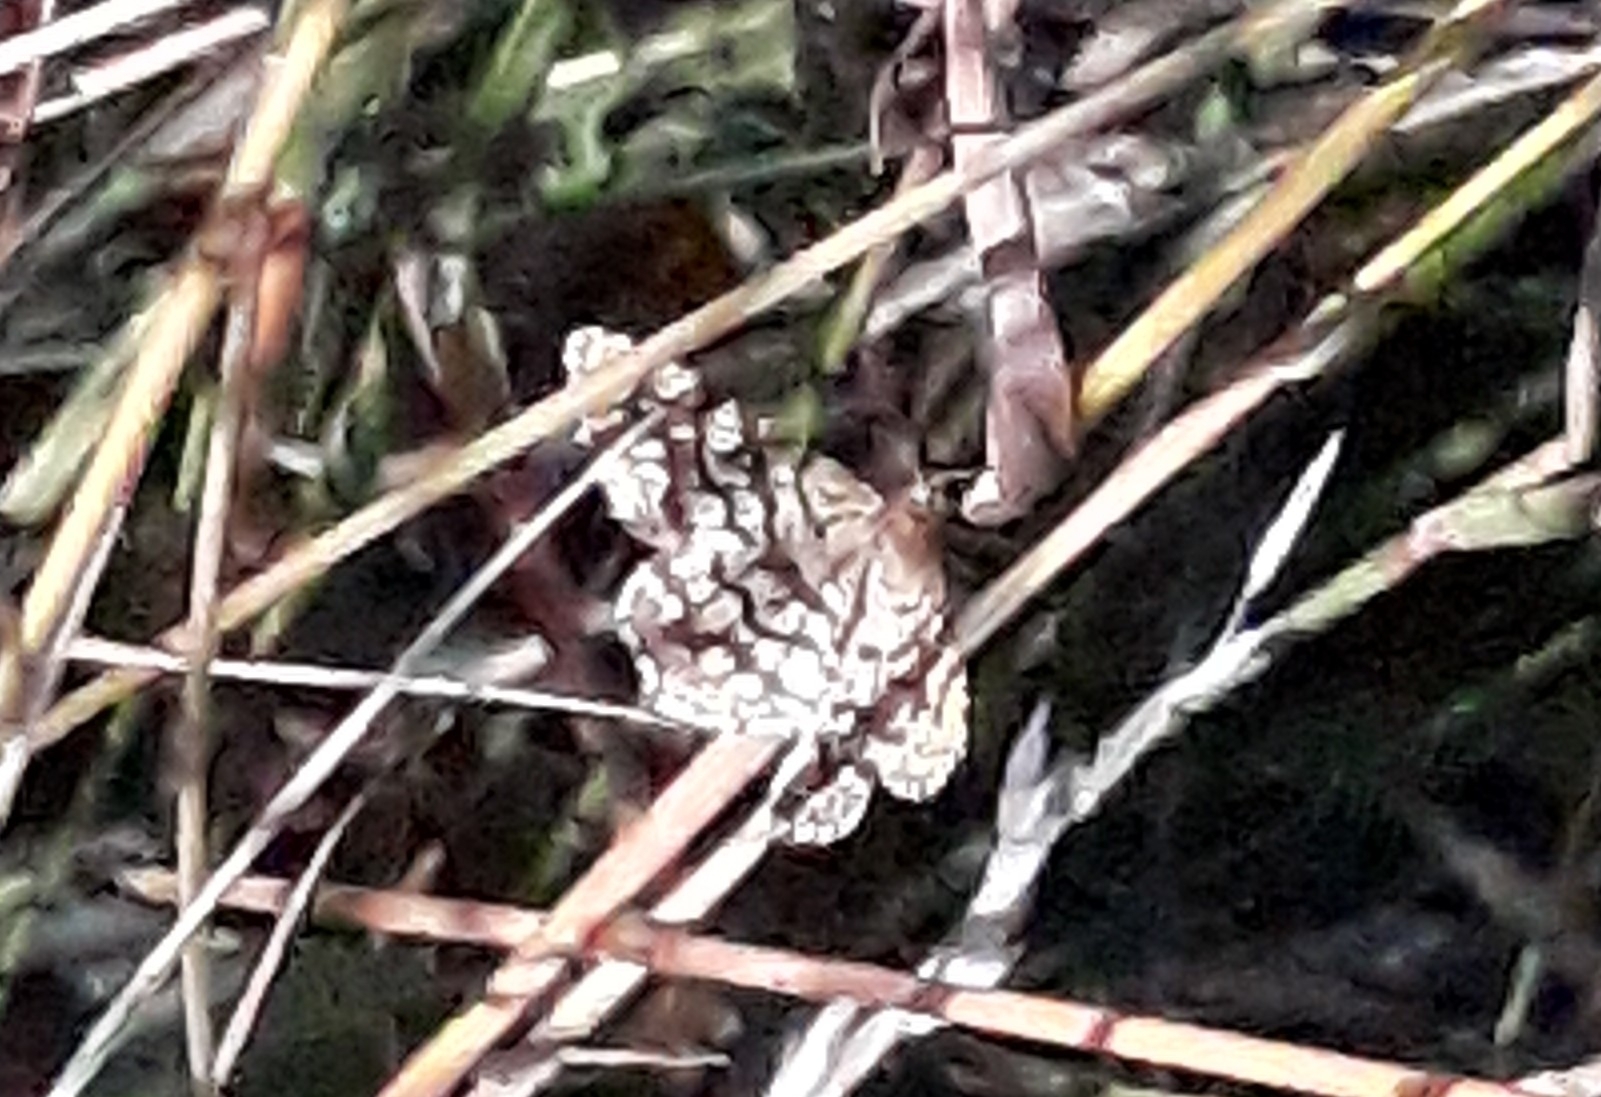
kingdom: Animalia
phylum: Arthropoda
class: Insecta
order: Lepidoptera
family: Geometridae
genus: Chiasmia
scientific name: Chiasmia clathrata
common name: Latticed heath
